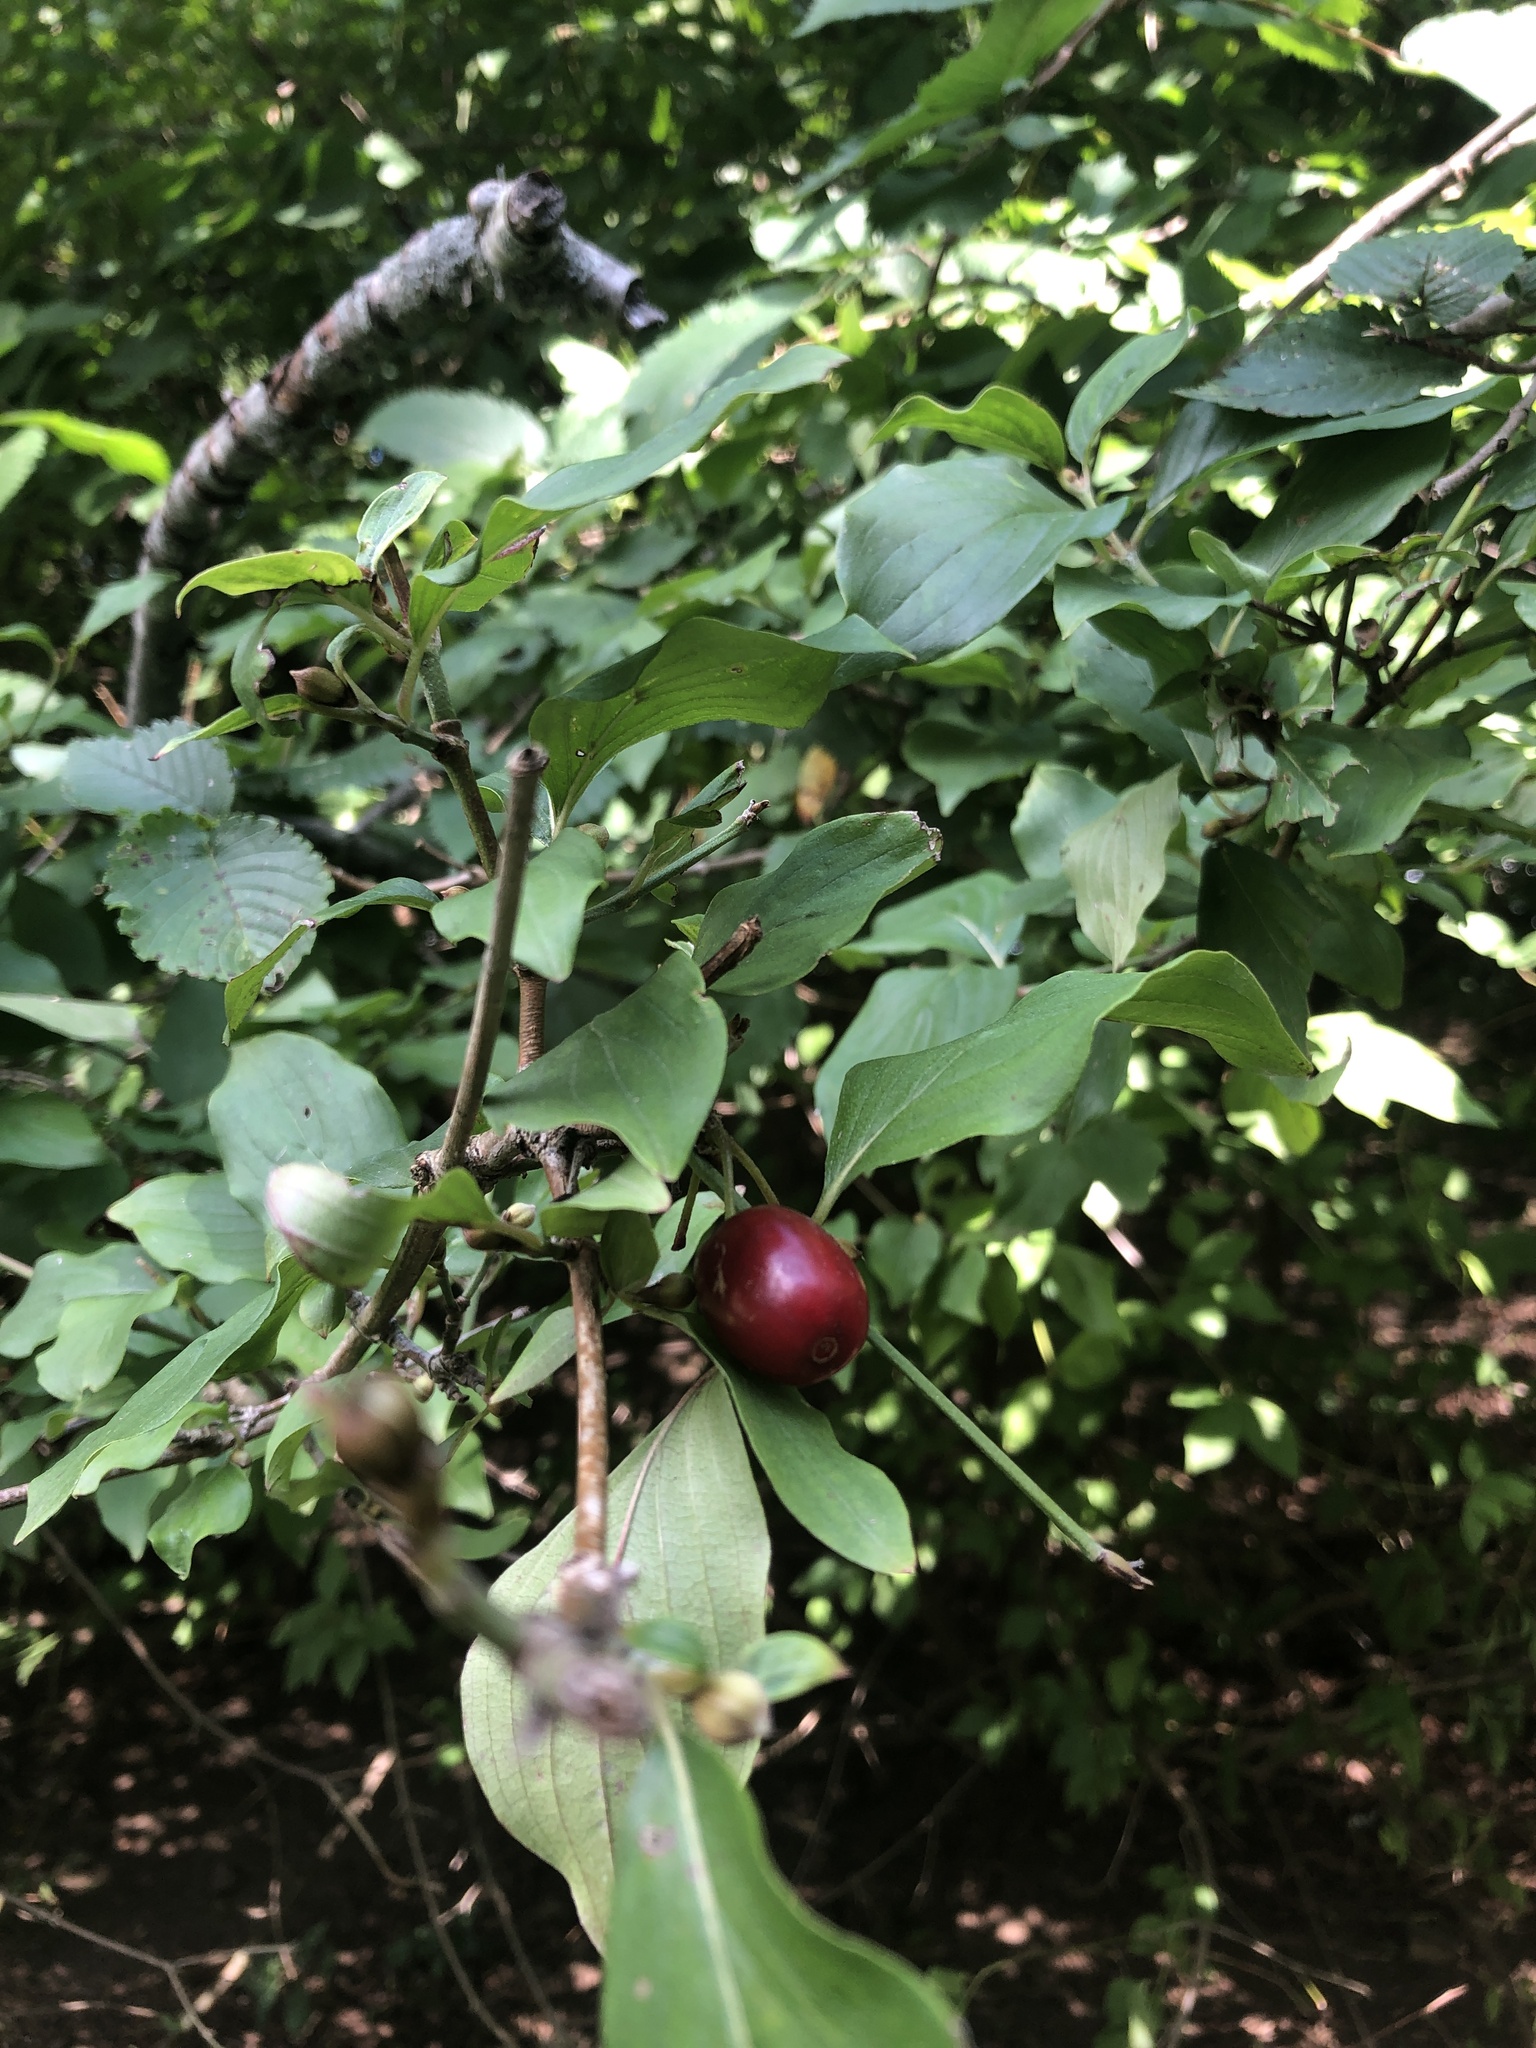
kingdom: Plantae
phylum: Tracheophyta
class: Magnoliopsida
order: Cornales
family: Cornaceae
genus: Cornus
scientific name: Cornus mas
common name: Cornelian-cherry
